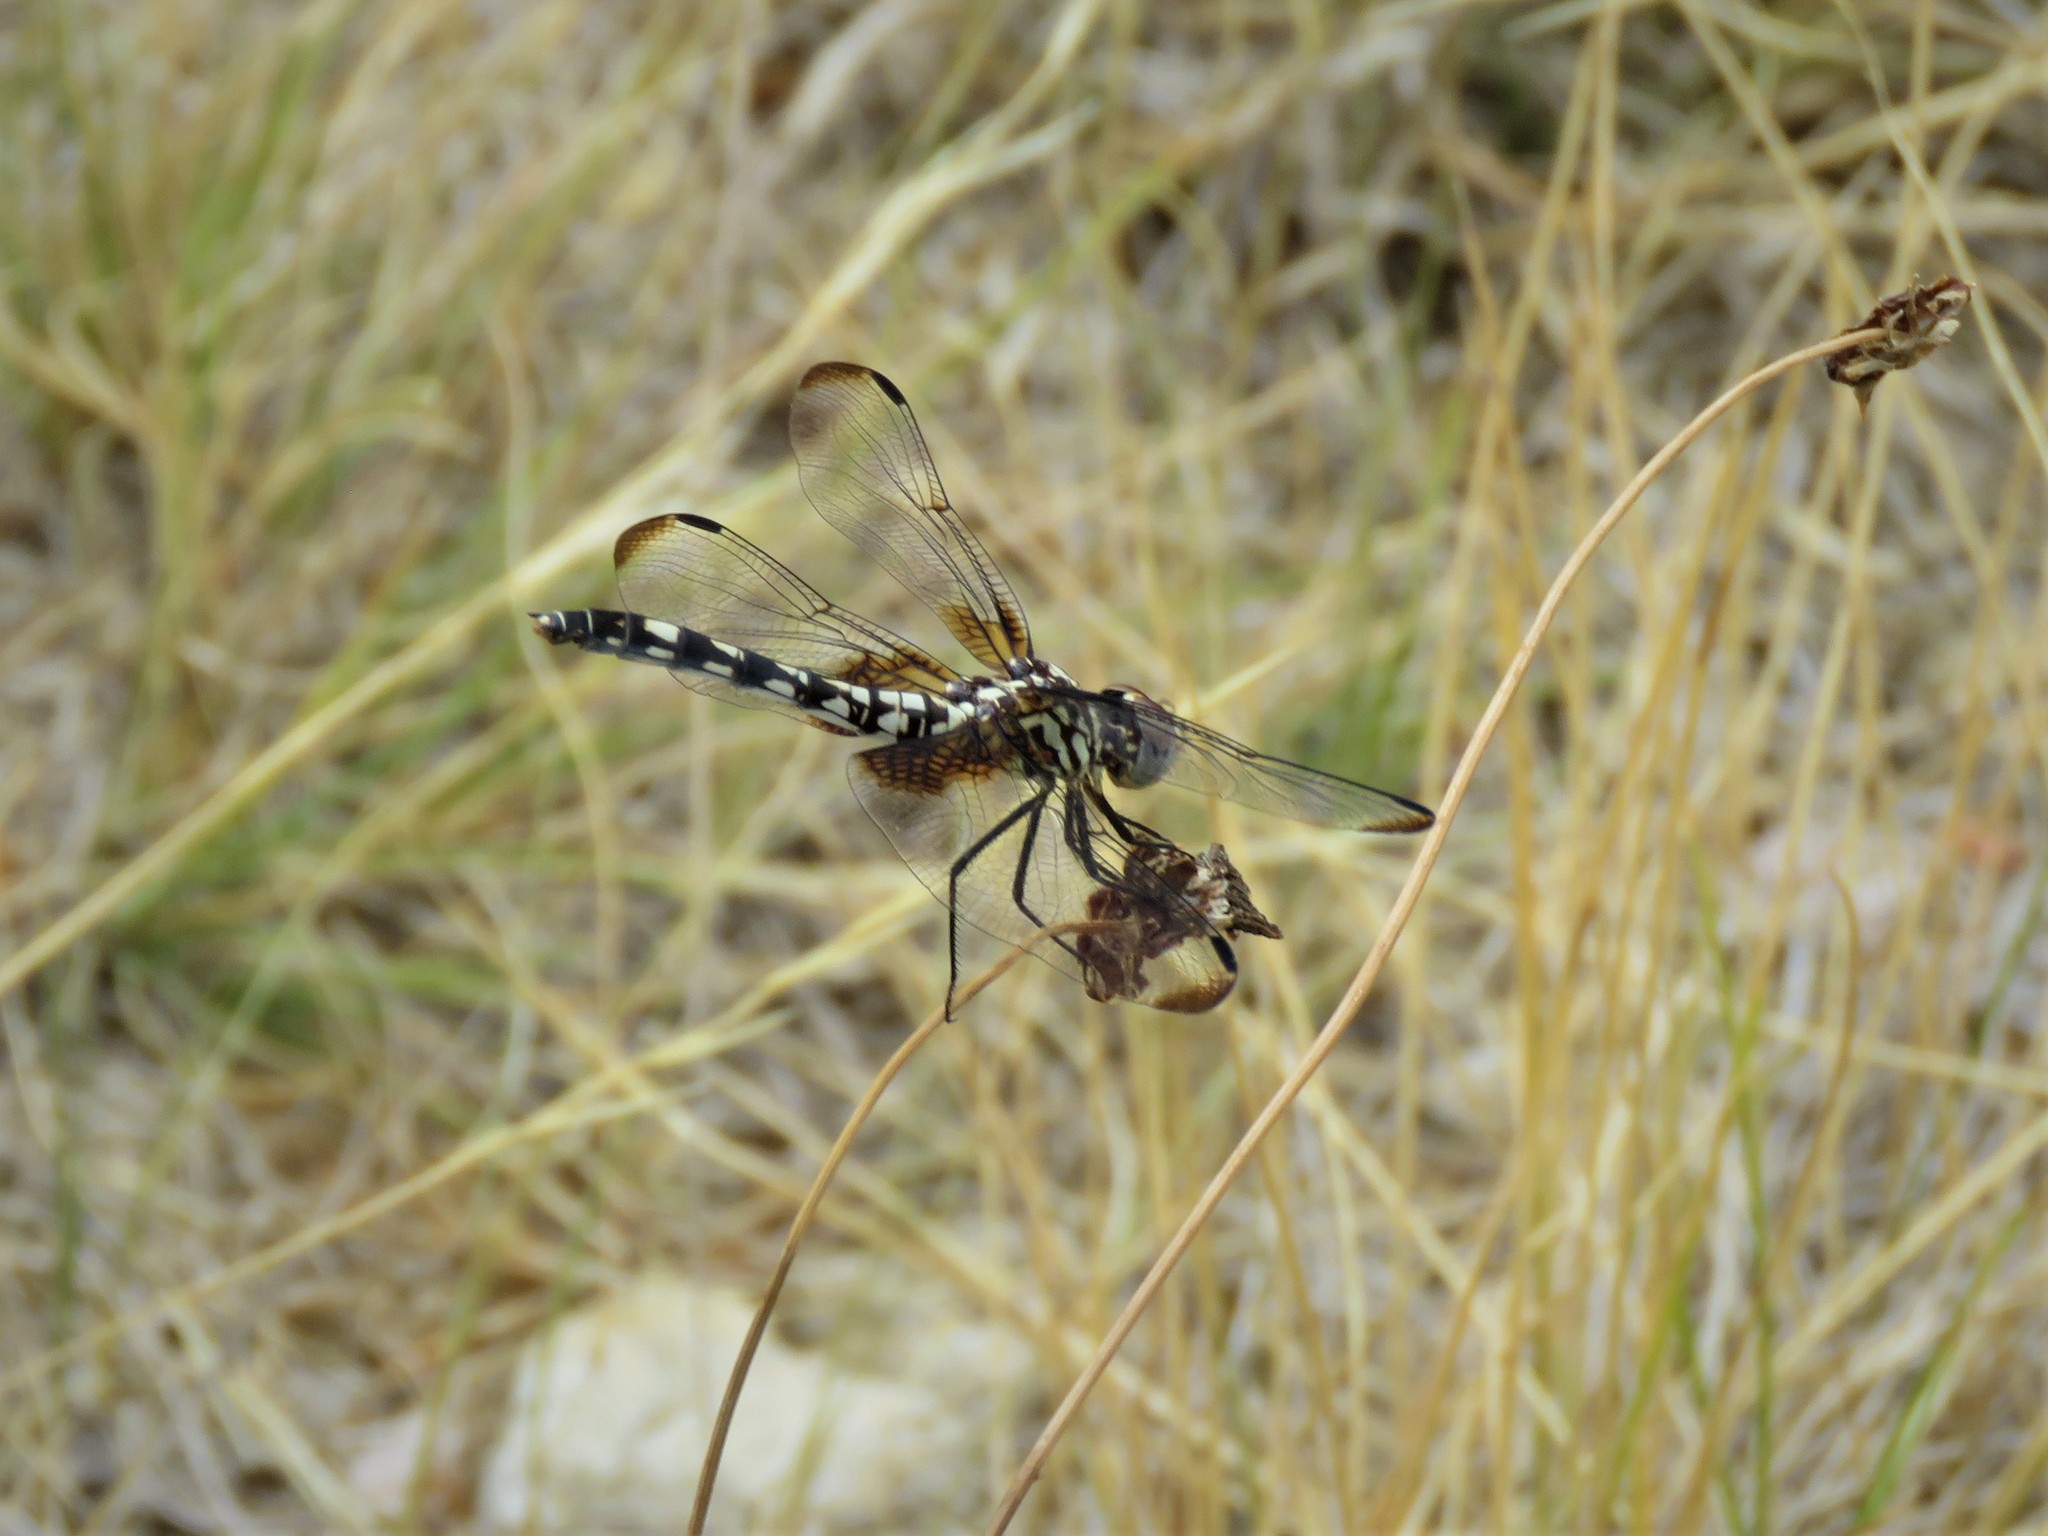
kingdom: Animalia
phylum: Arthropoda
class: Insecta
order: Odonata
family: Libellulidae
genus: Dythemis
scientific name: Dythemis fugax
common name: Checkered setwing
